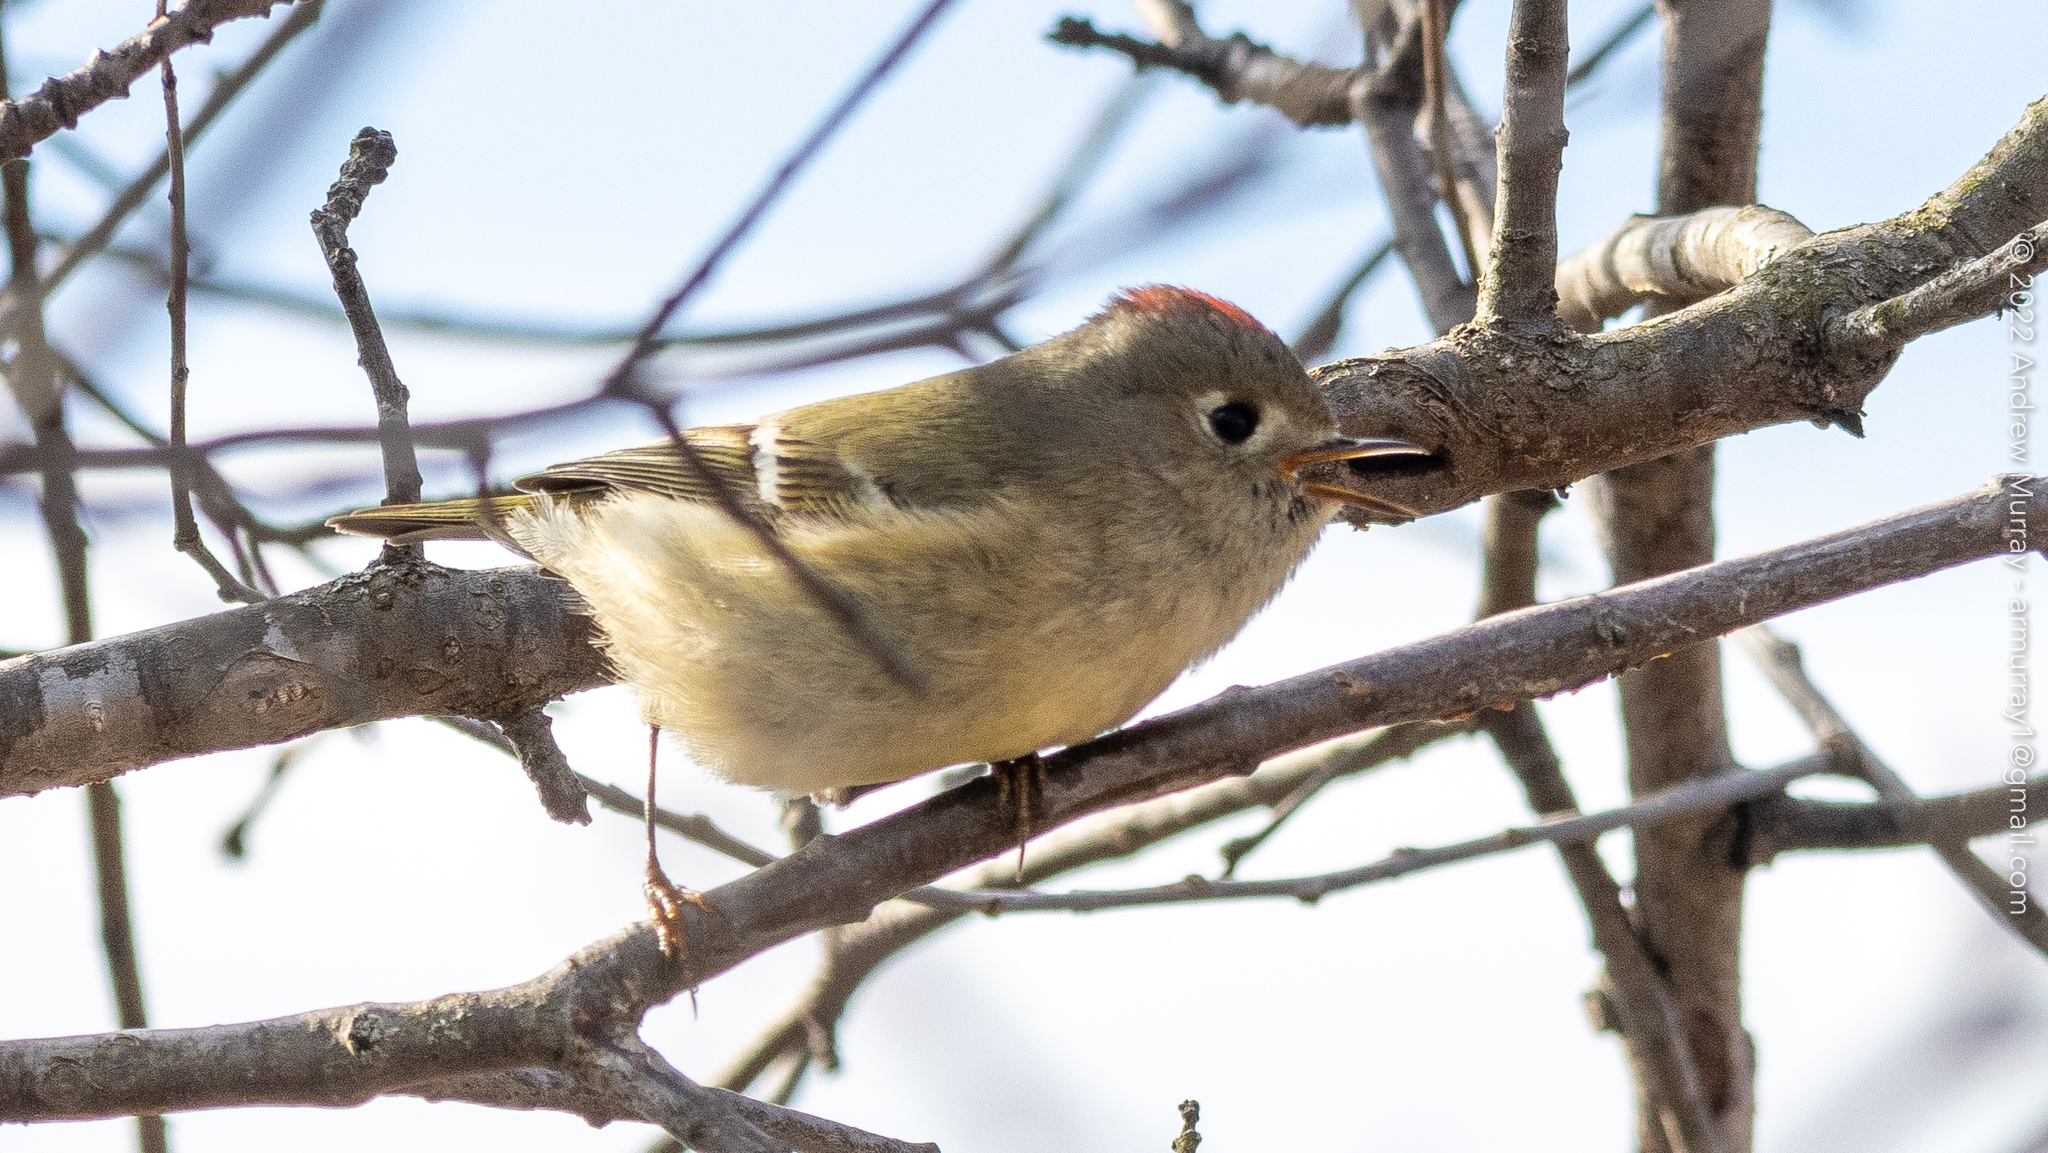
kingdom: Animalia
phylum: Chordata
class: Aves
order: Passeriformes
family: Regulidae
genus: Regulus
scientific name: Regulus calendula
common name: Ruby-crowned kinglet
